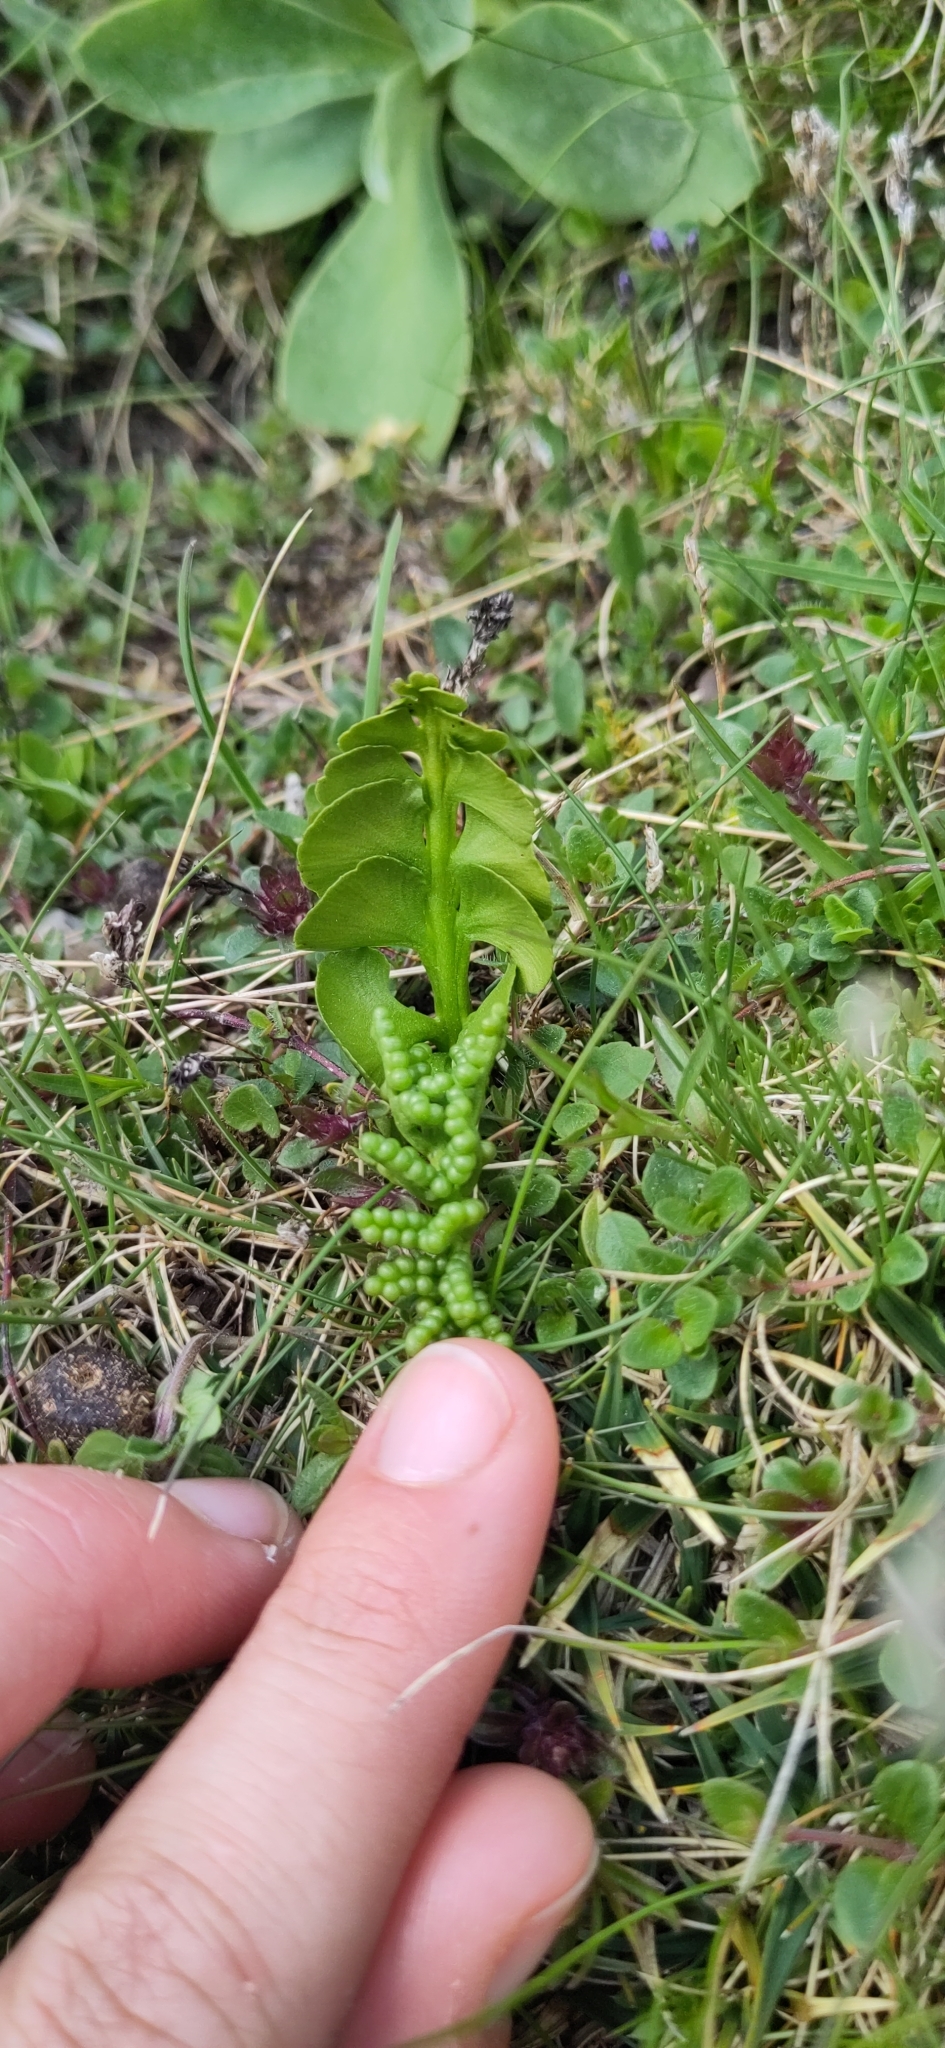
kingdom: Plantae
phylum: Tracheophyta
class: Polypodiopsida
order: Ophioglossales
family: Ophioglossaceae
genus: Botrychium
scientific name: Botrychium lunaria
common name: Moonwort
